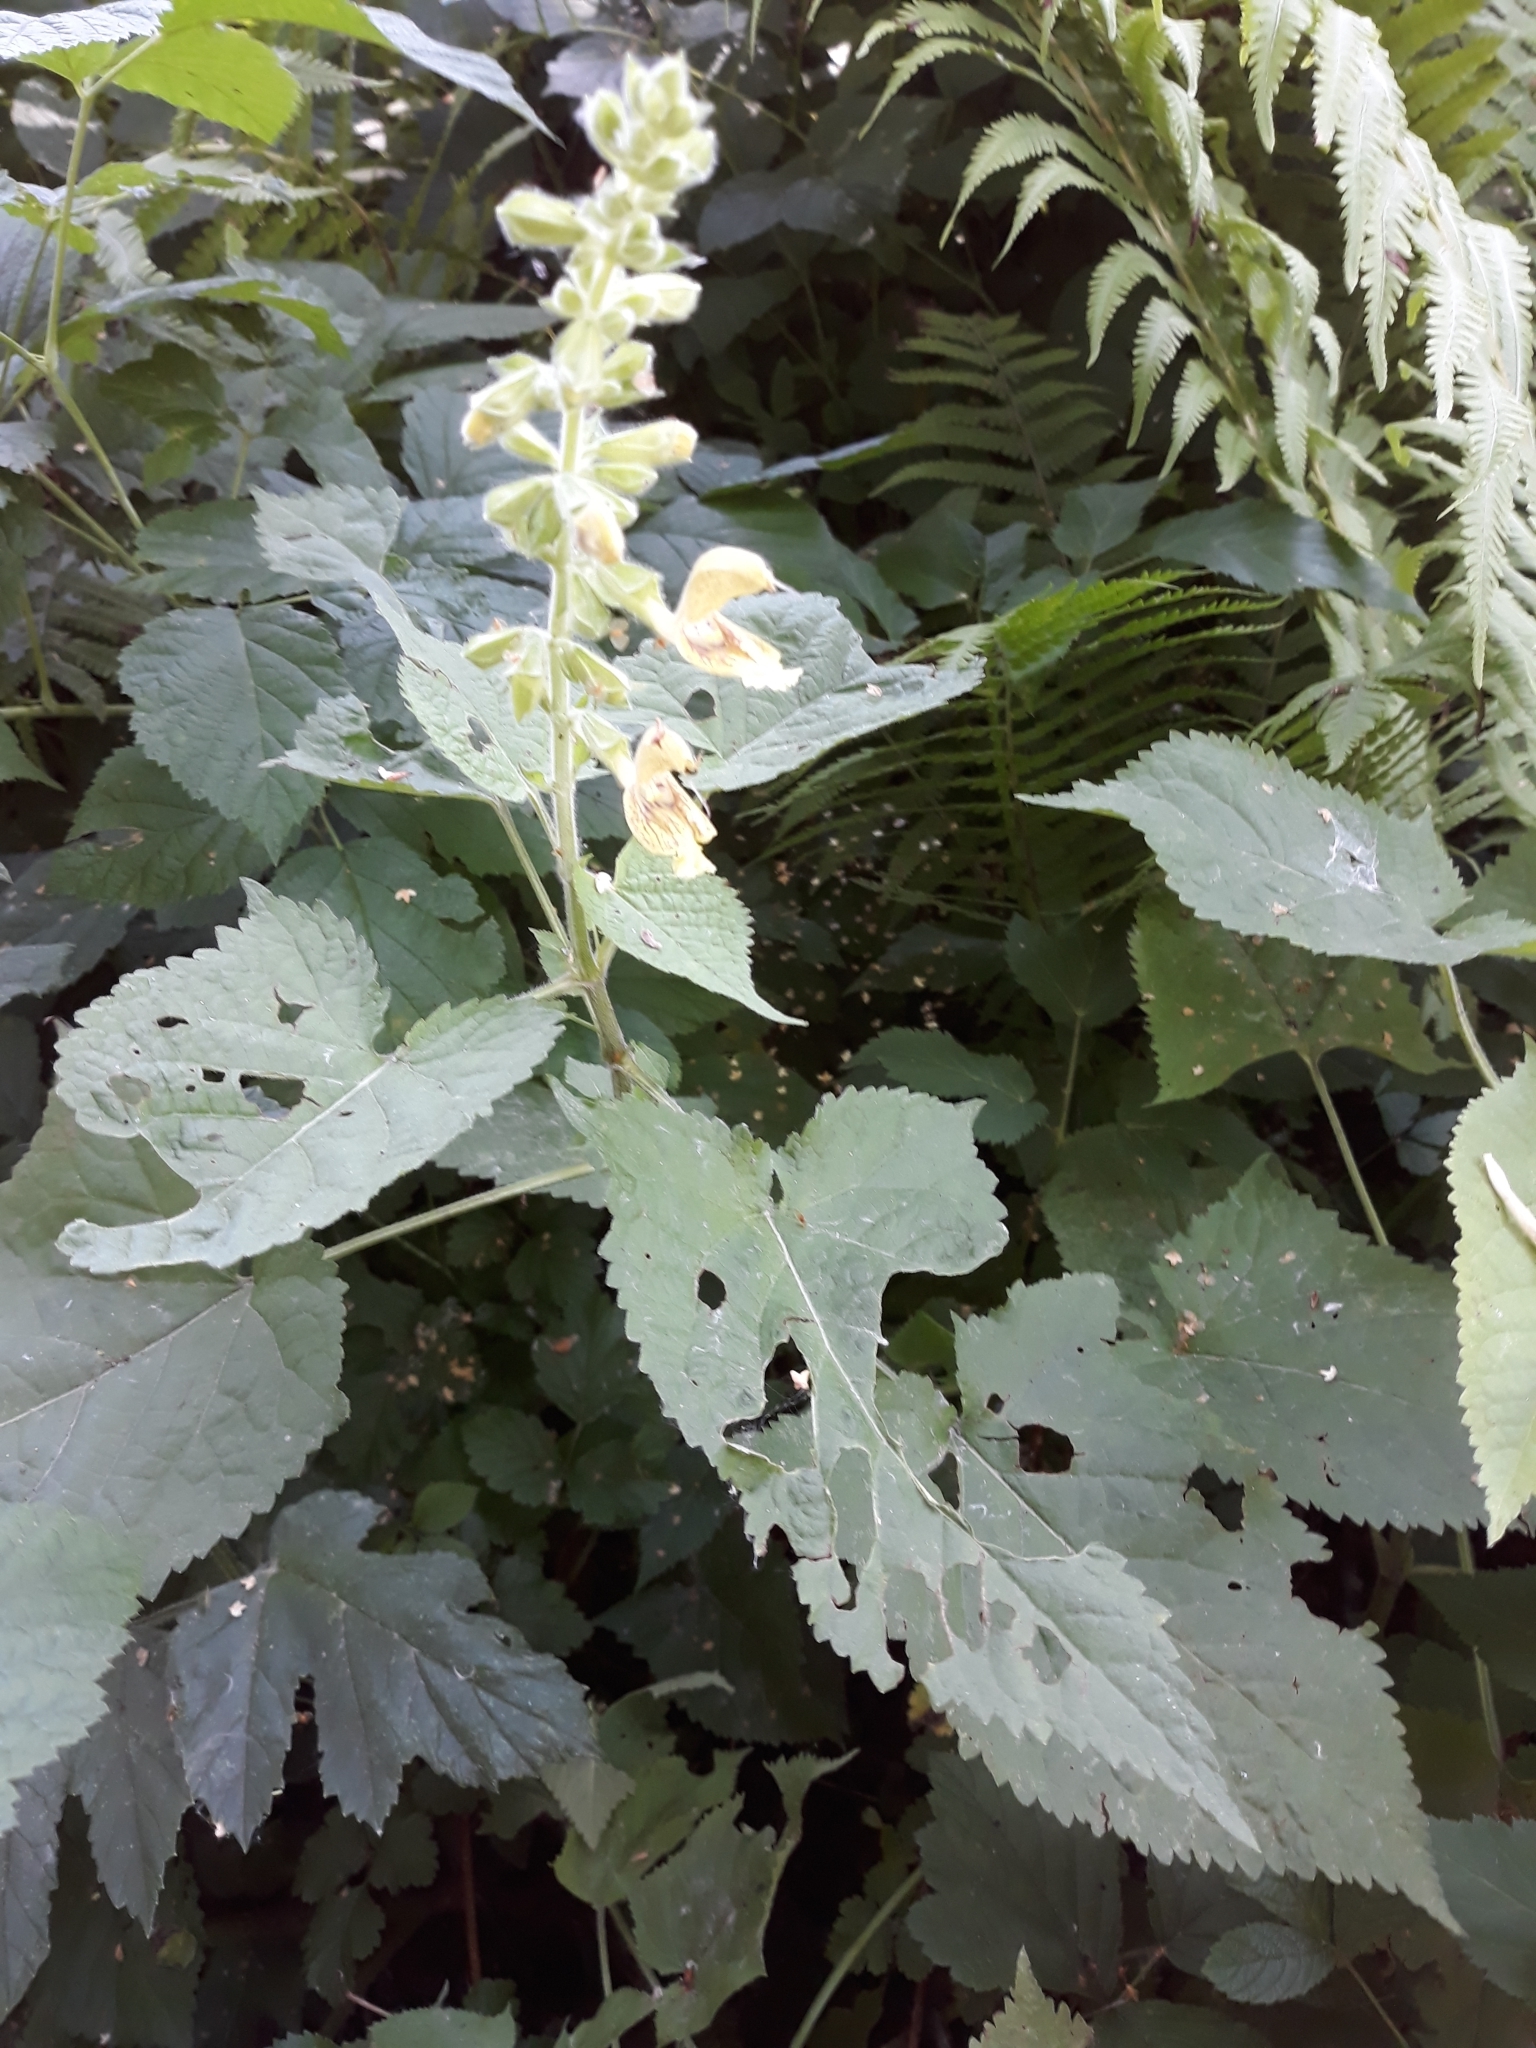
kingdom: Plantae
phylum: Tracheophyta
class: Magnoliopsida
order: Lamiales
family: Lamiaceae
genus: Salvia
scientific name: Salvia glutinosa
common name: Sticky clary
